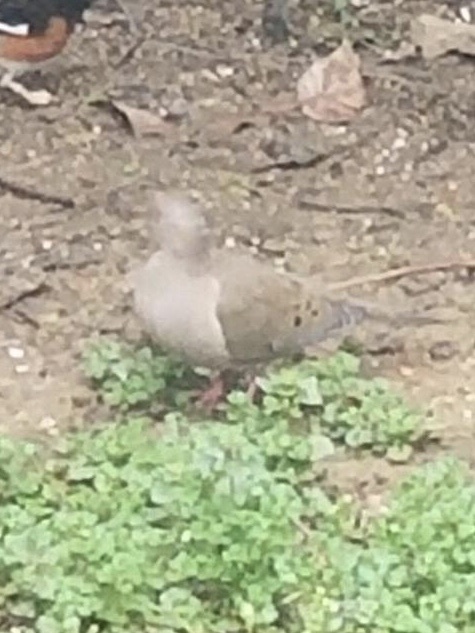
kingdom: Animalia
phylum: Chordata
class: Aves
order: Columbiformes
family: Columbidae
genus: Zenaida
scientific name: Zenaida macroura
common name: Mourning dove
